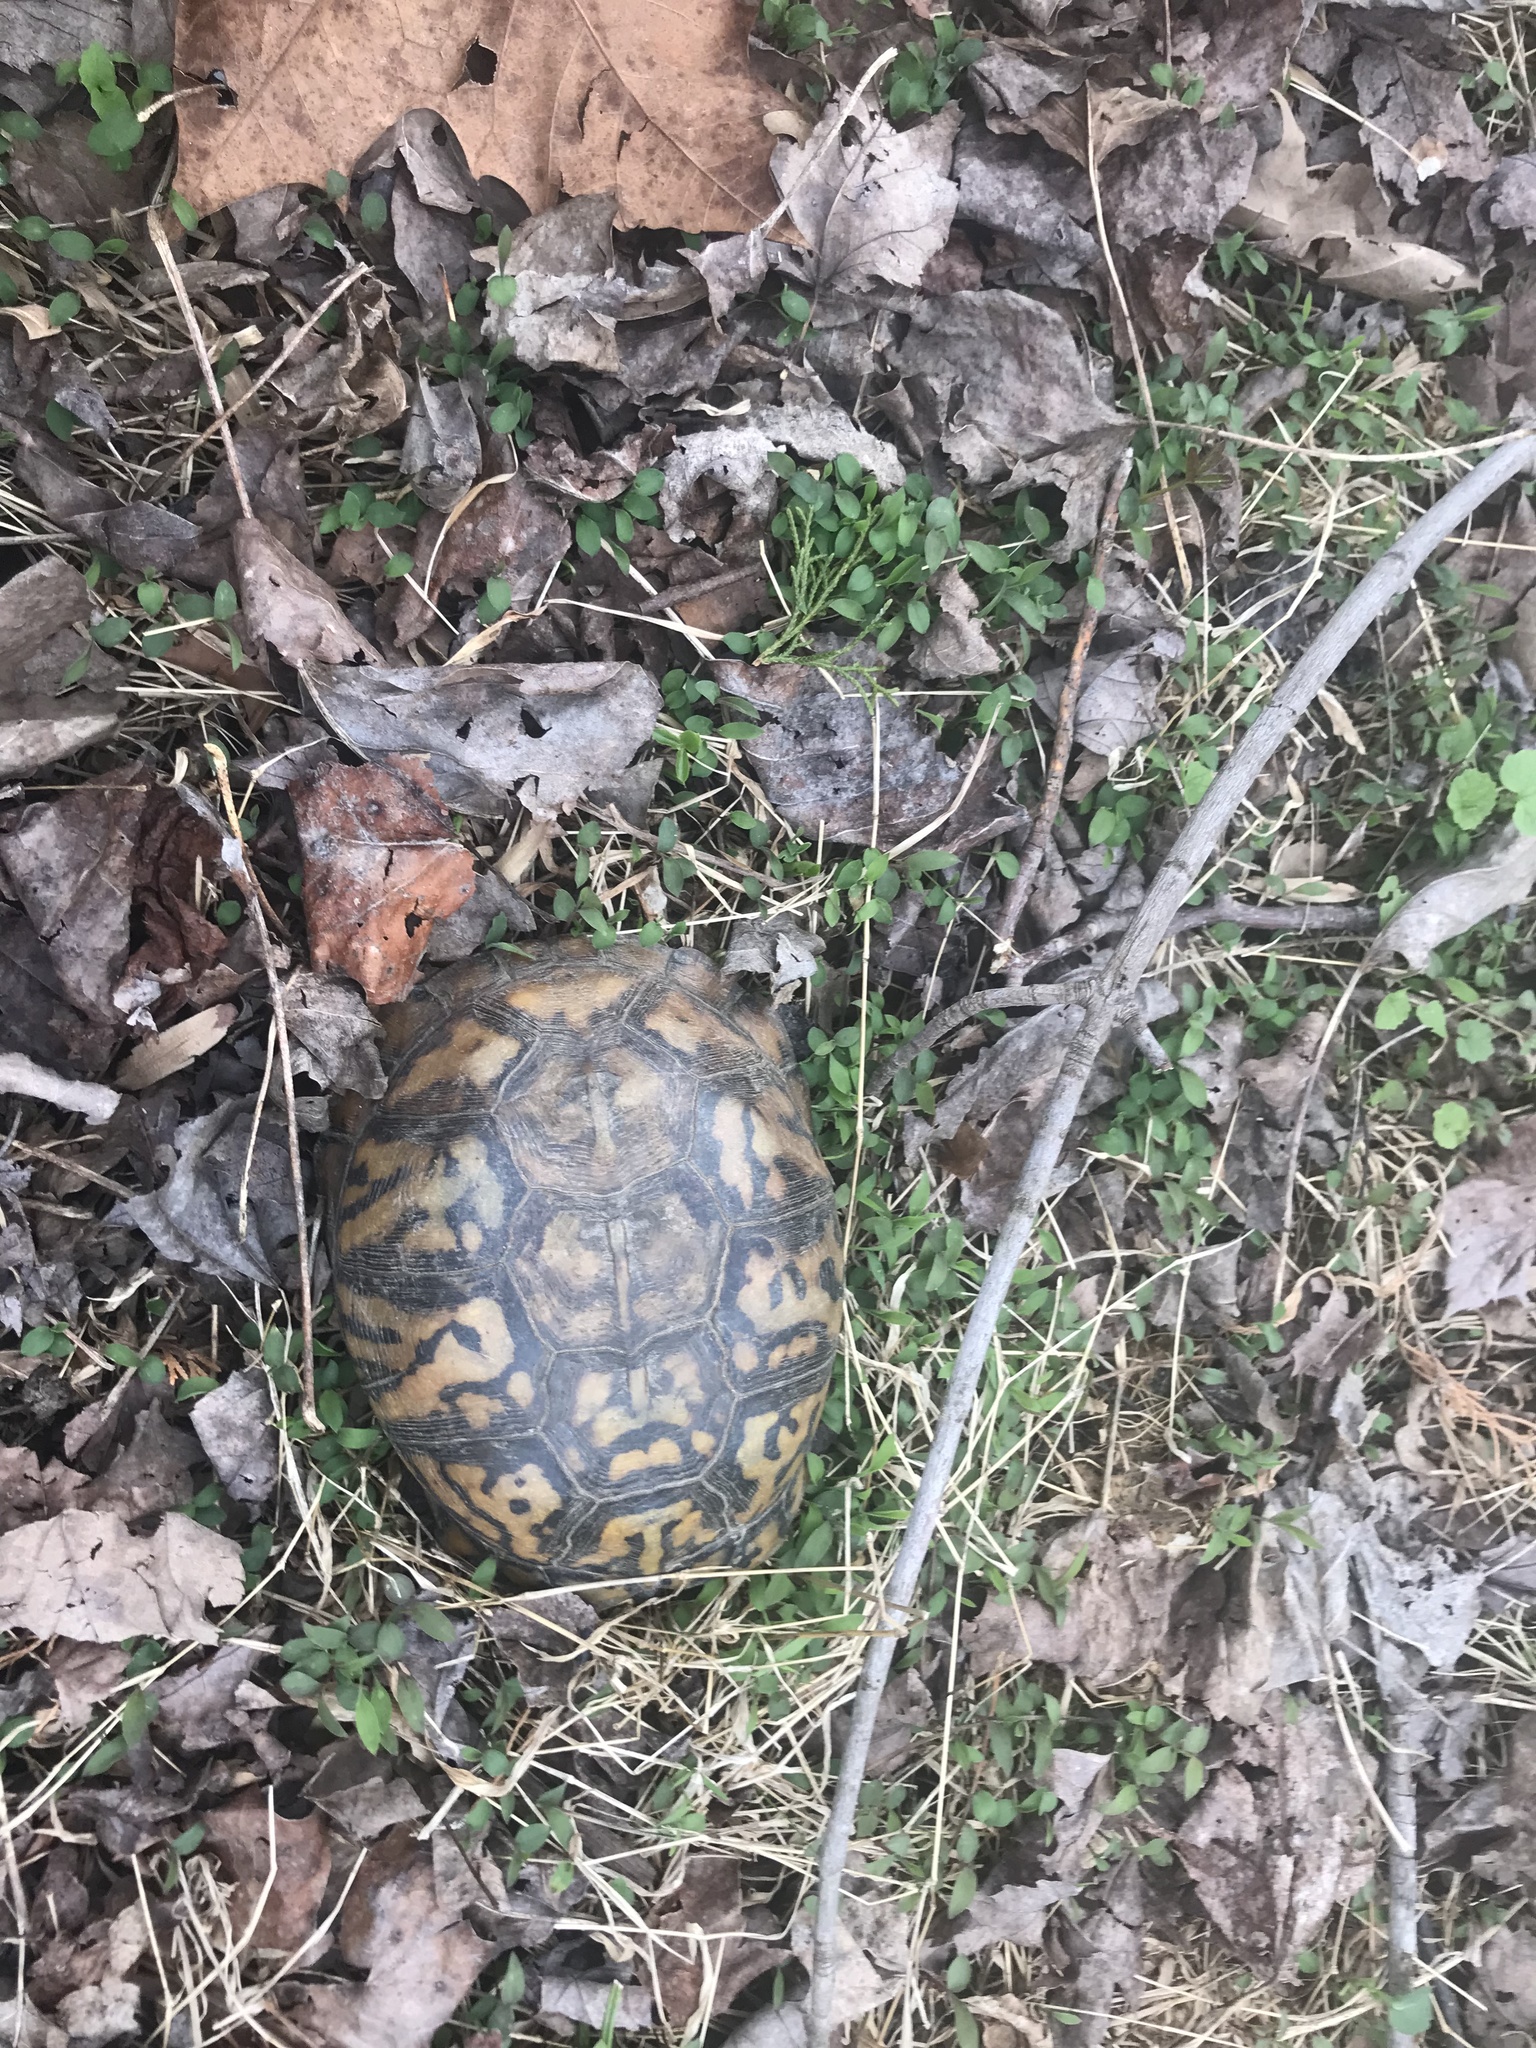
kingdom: Animalia
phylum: Chordata
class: Testudines
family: Emydidae
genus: Terrapene
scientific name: Terrapene carolina
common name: Common box turtle
